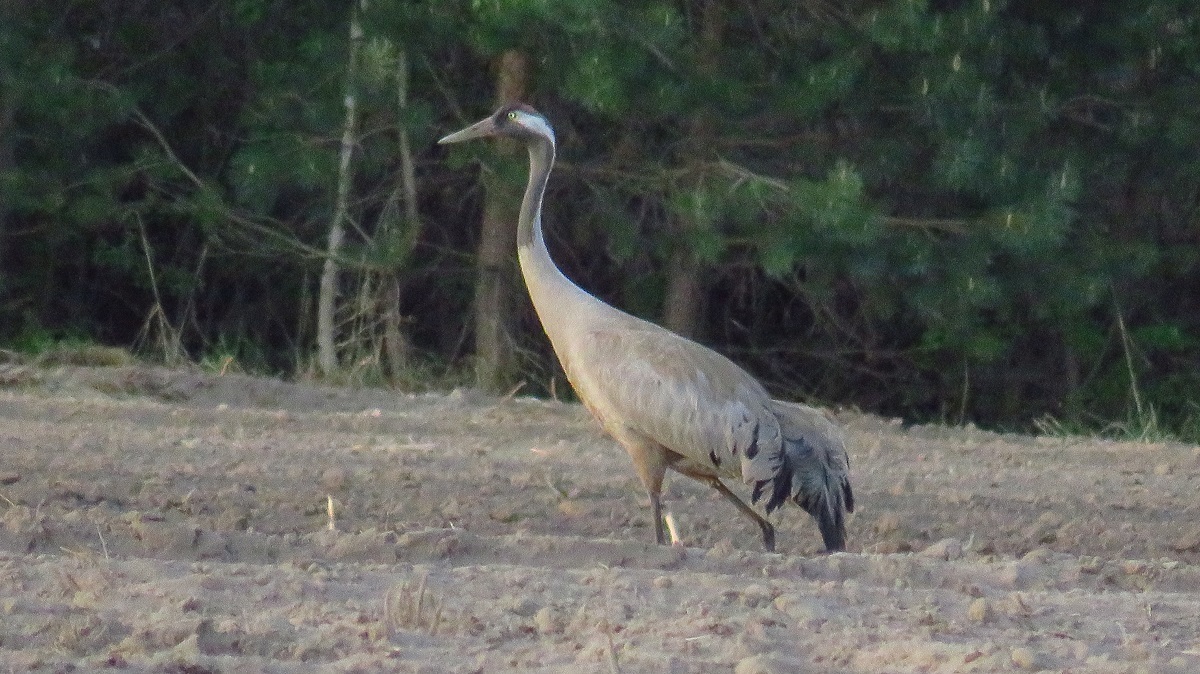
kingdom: Animalia
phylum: Chordata
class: Aves
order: Gruiformes
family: Gruidae
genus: Grus
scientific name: Grus grus
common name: Common crane
